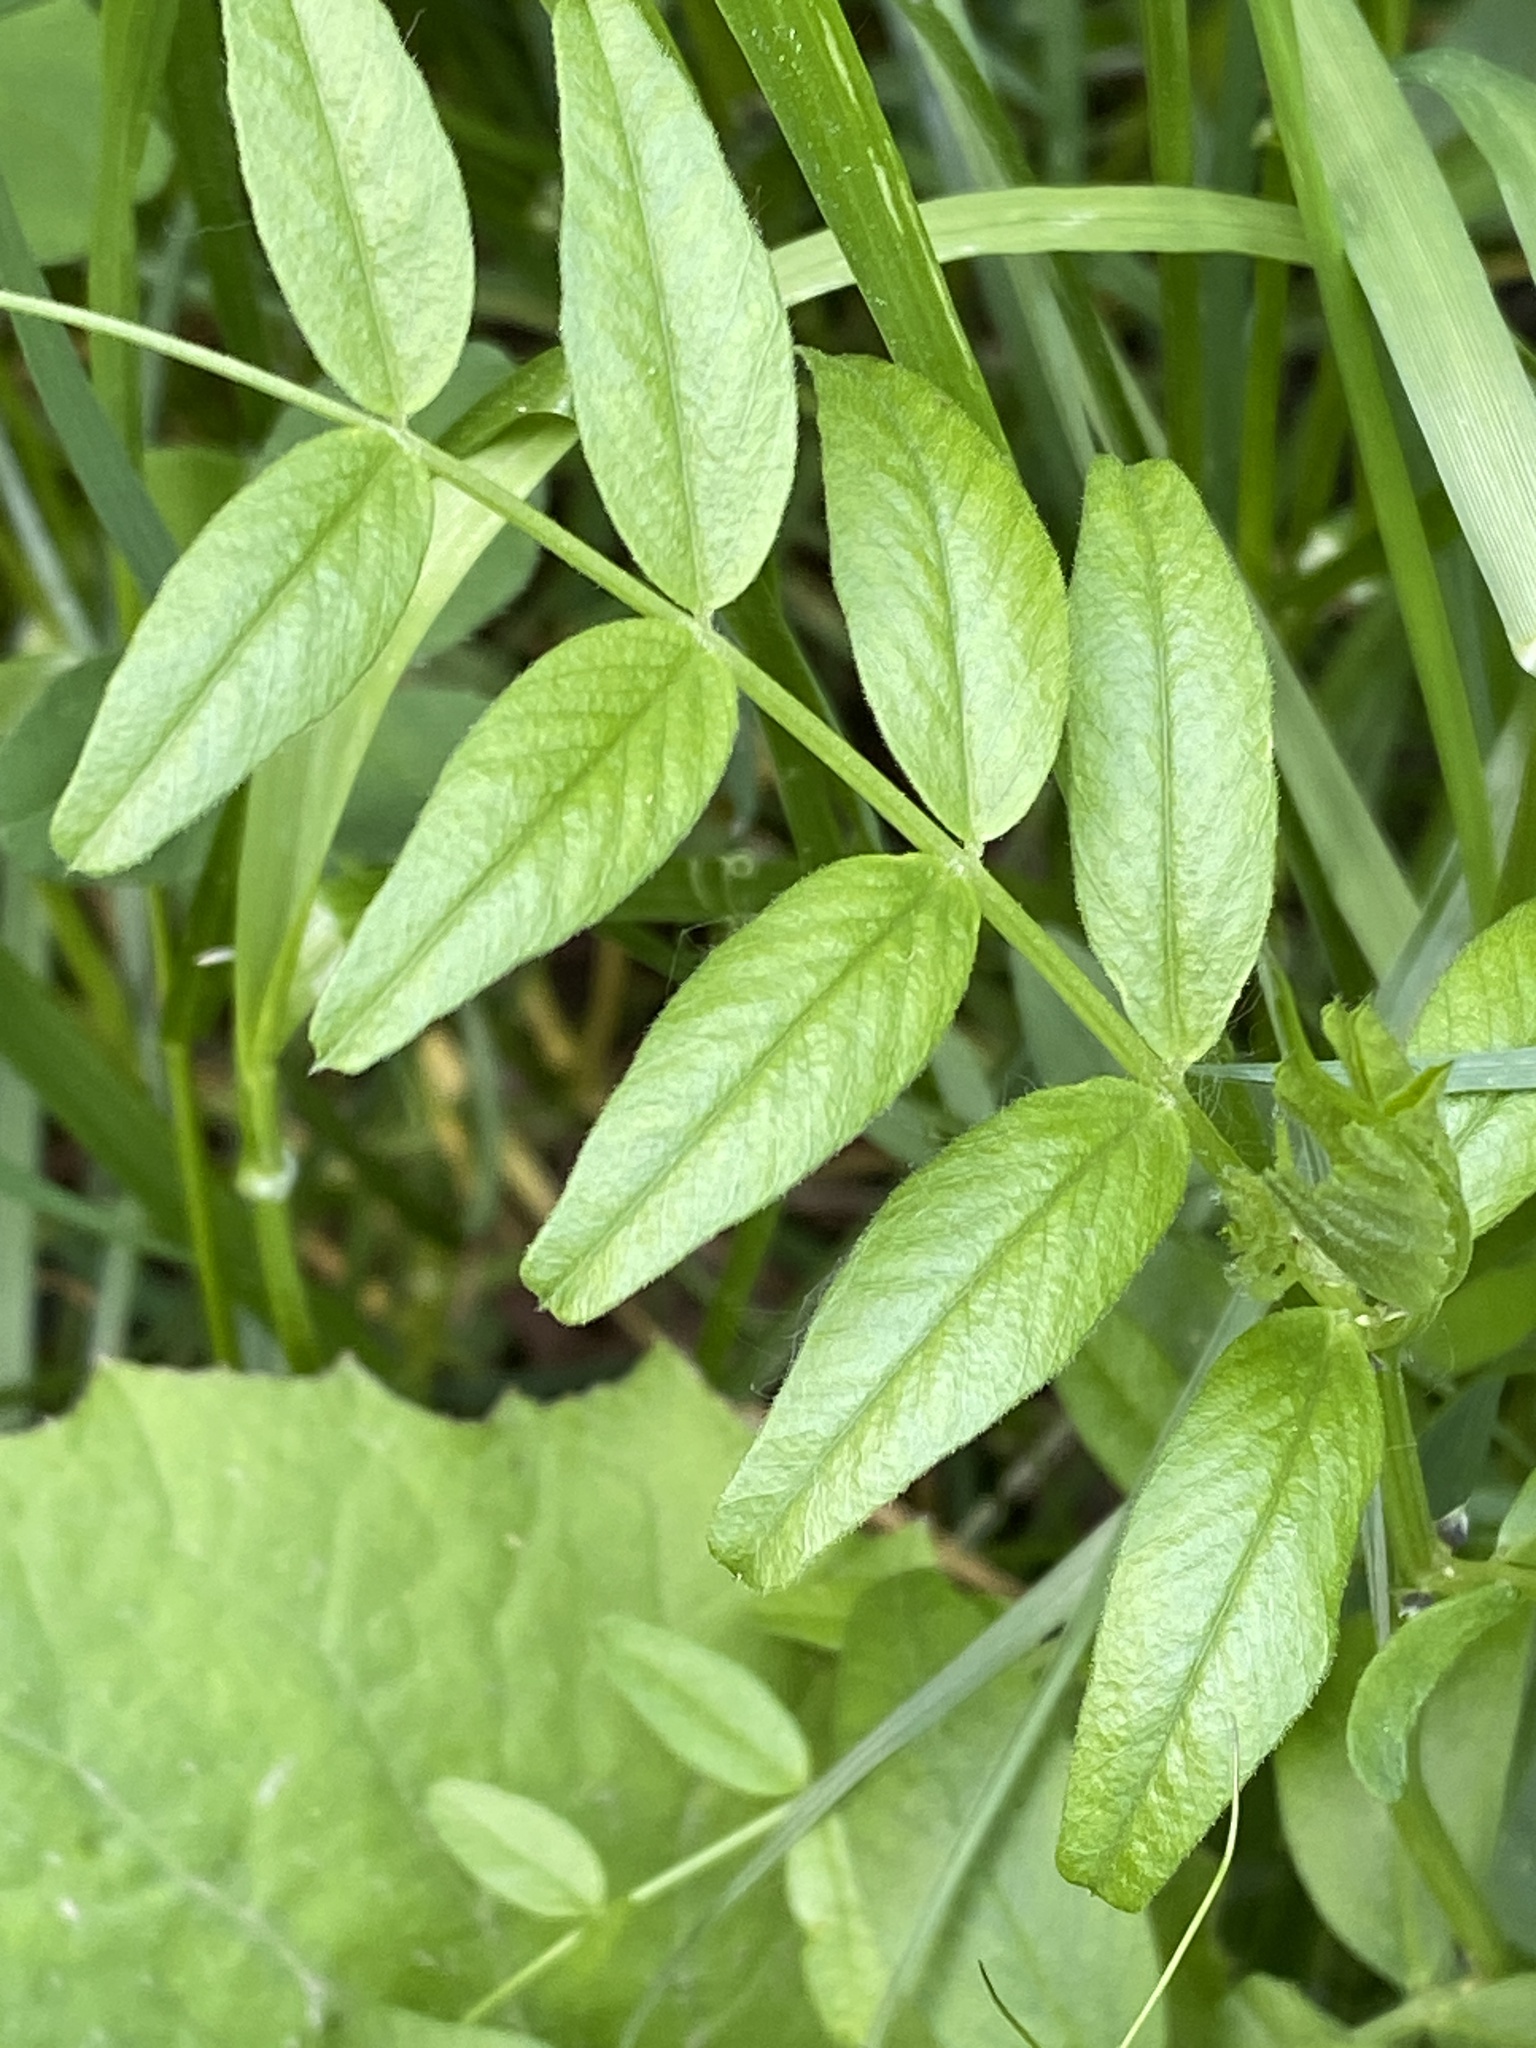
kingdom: Plantae
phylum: Tracheophyta
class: Magnoliopsida
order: Fabales
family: Fabaceae
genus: Vicia
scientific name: Vicia sepium
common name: Bush vetch
